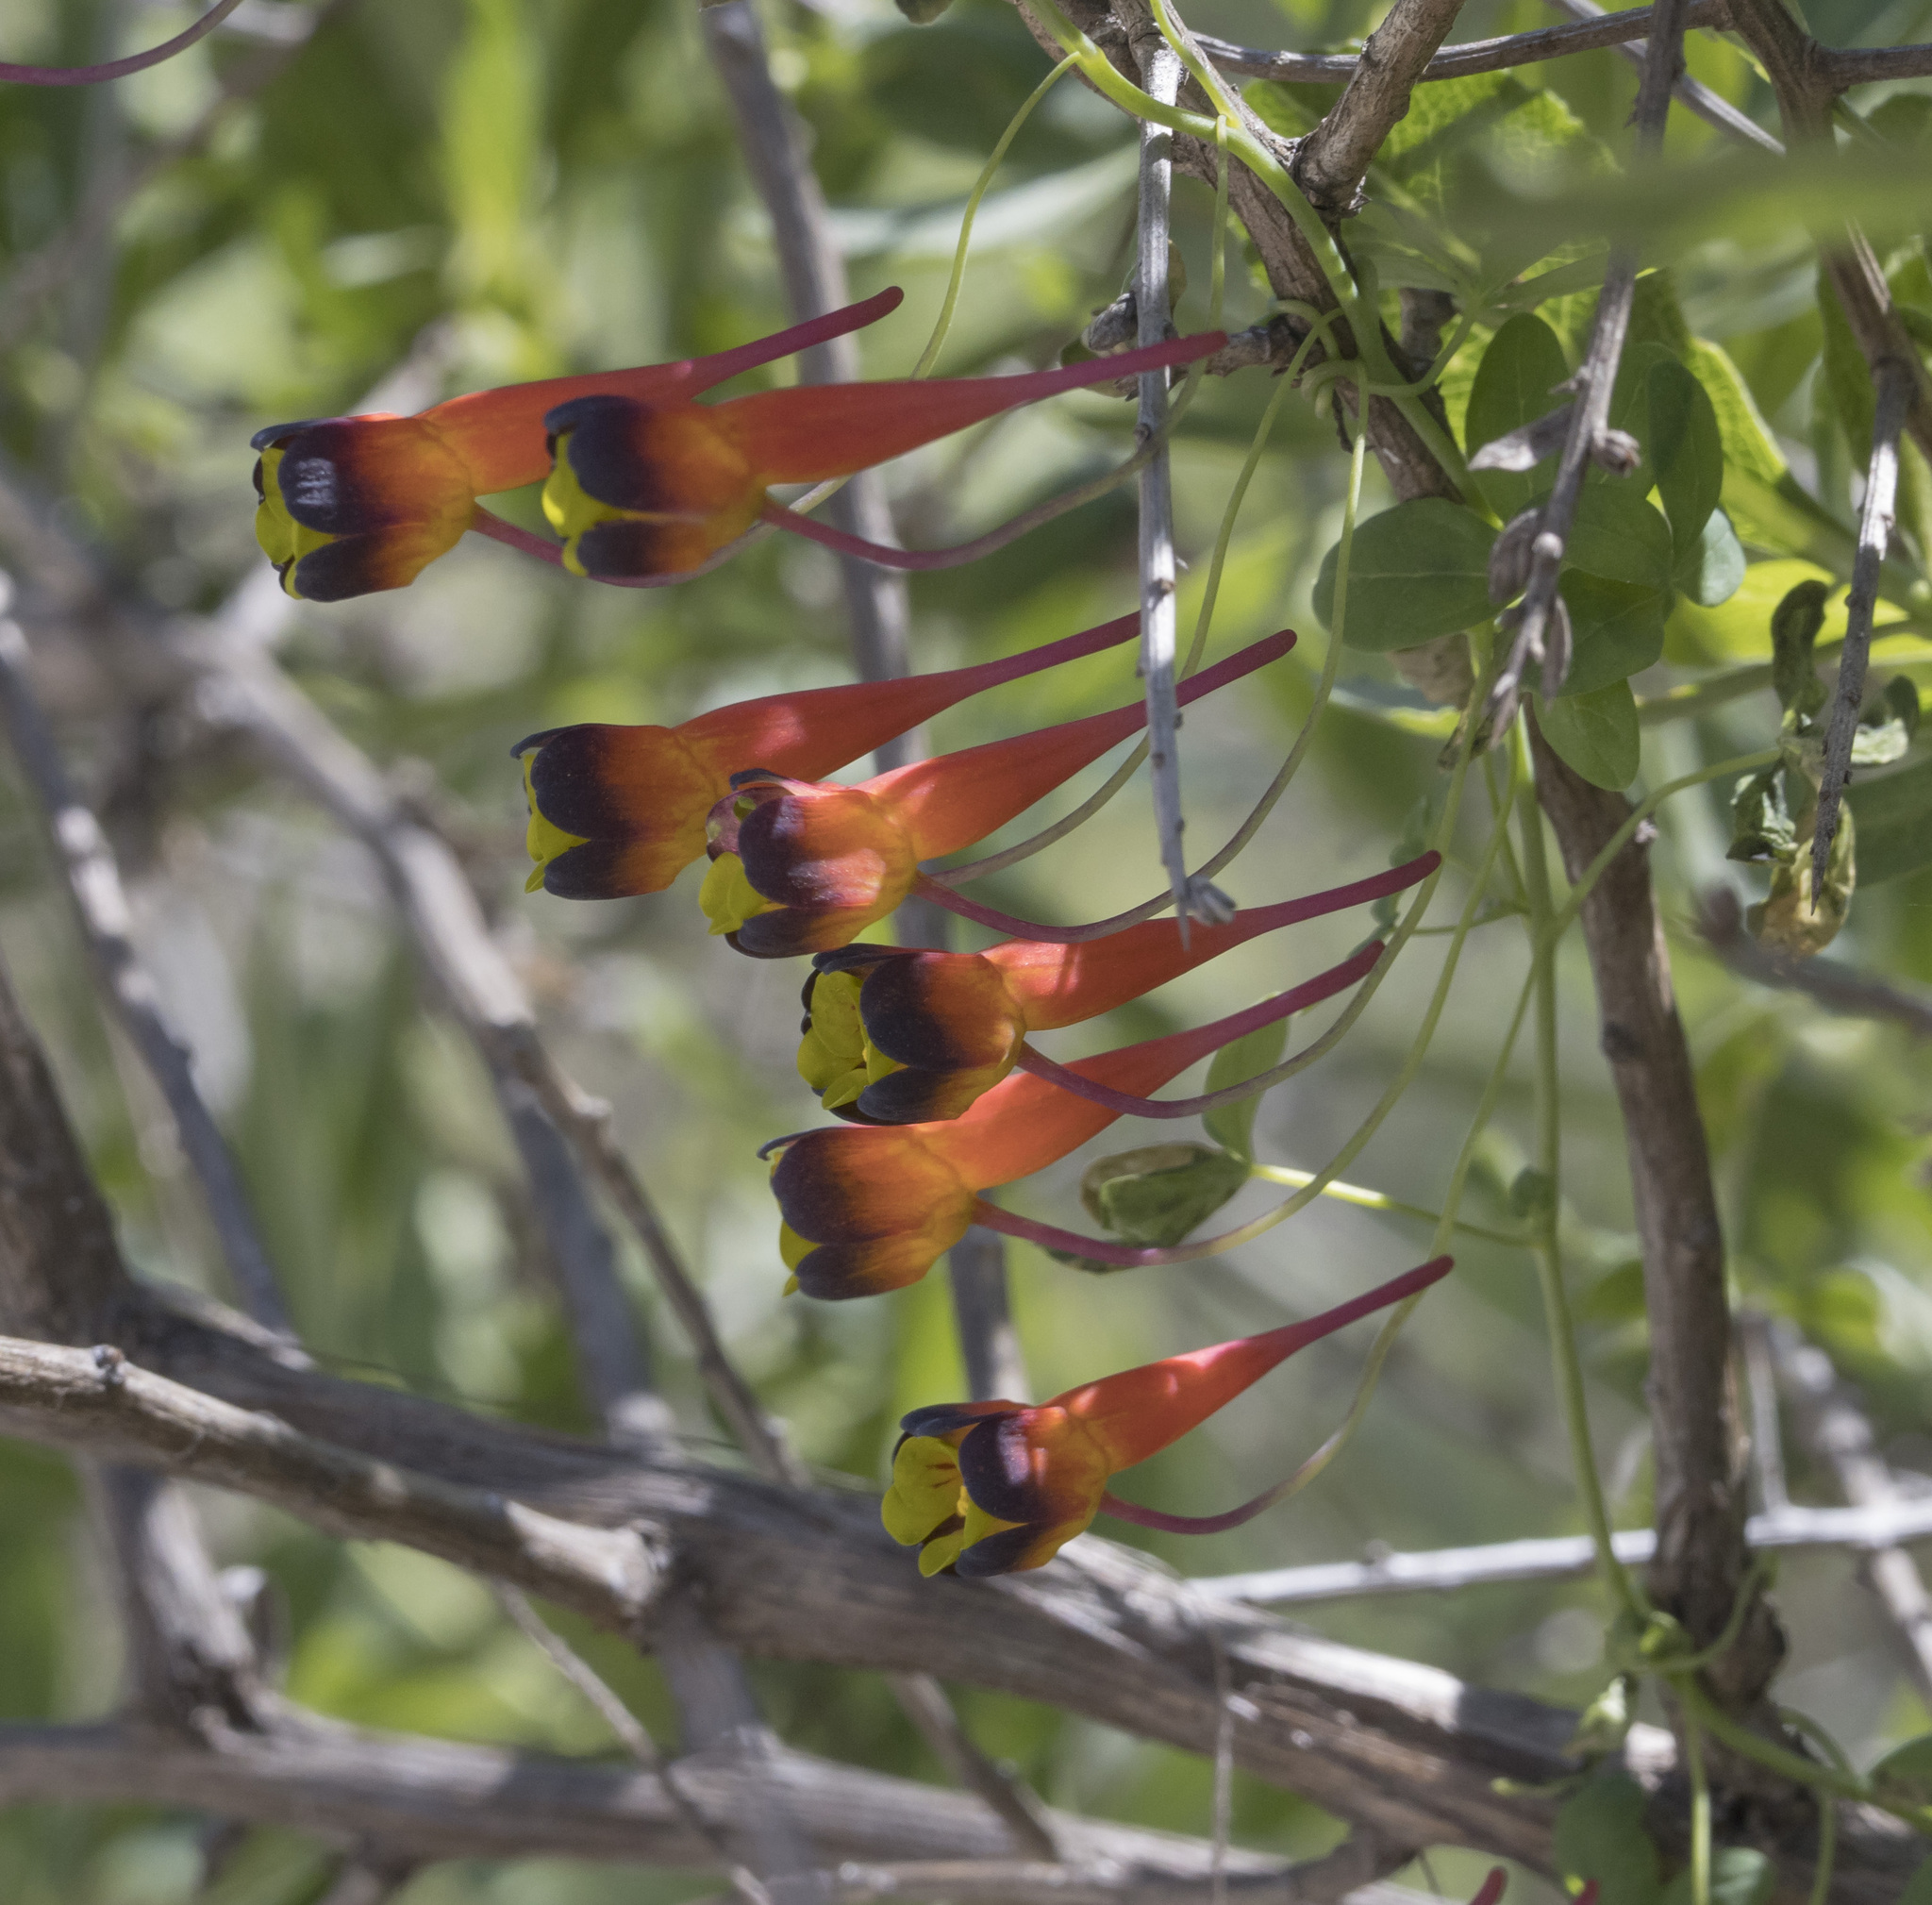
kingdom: Plantae
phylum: Tracheophyta
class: Magnoliopsida
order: Brassicales
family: Tropaeolaceae
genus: Tropaeolum
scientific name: Tropaeolum tricolor
